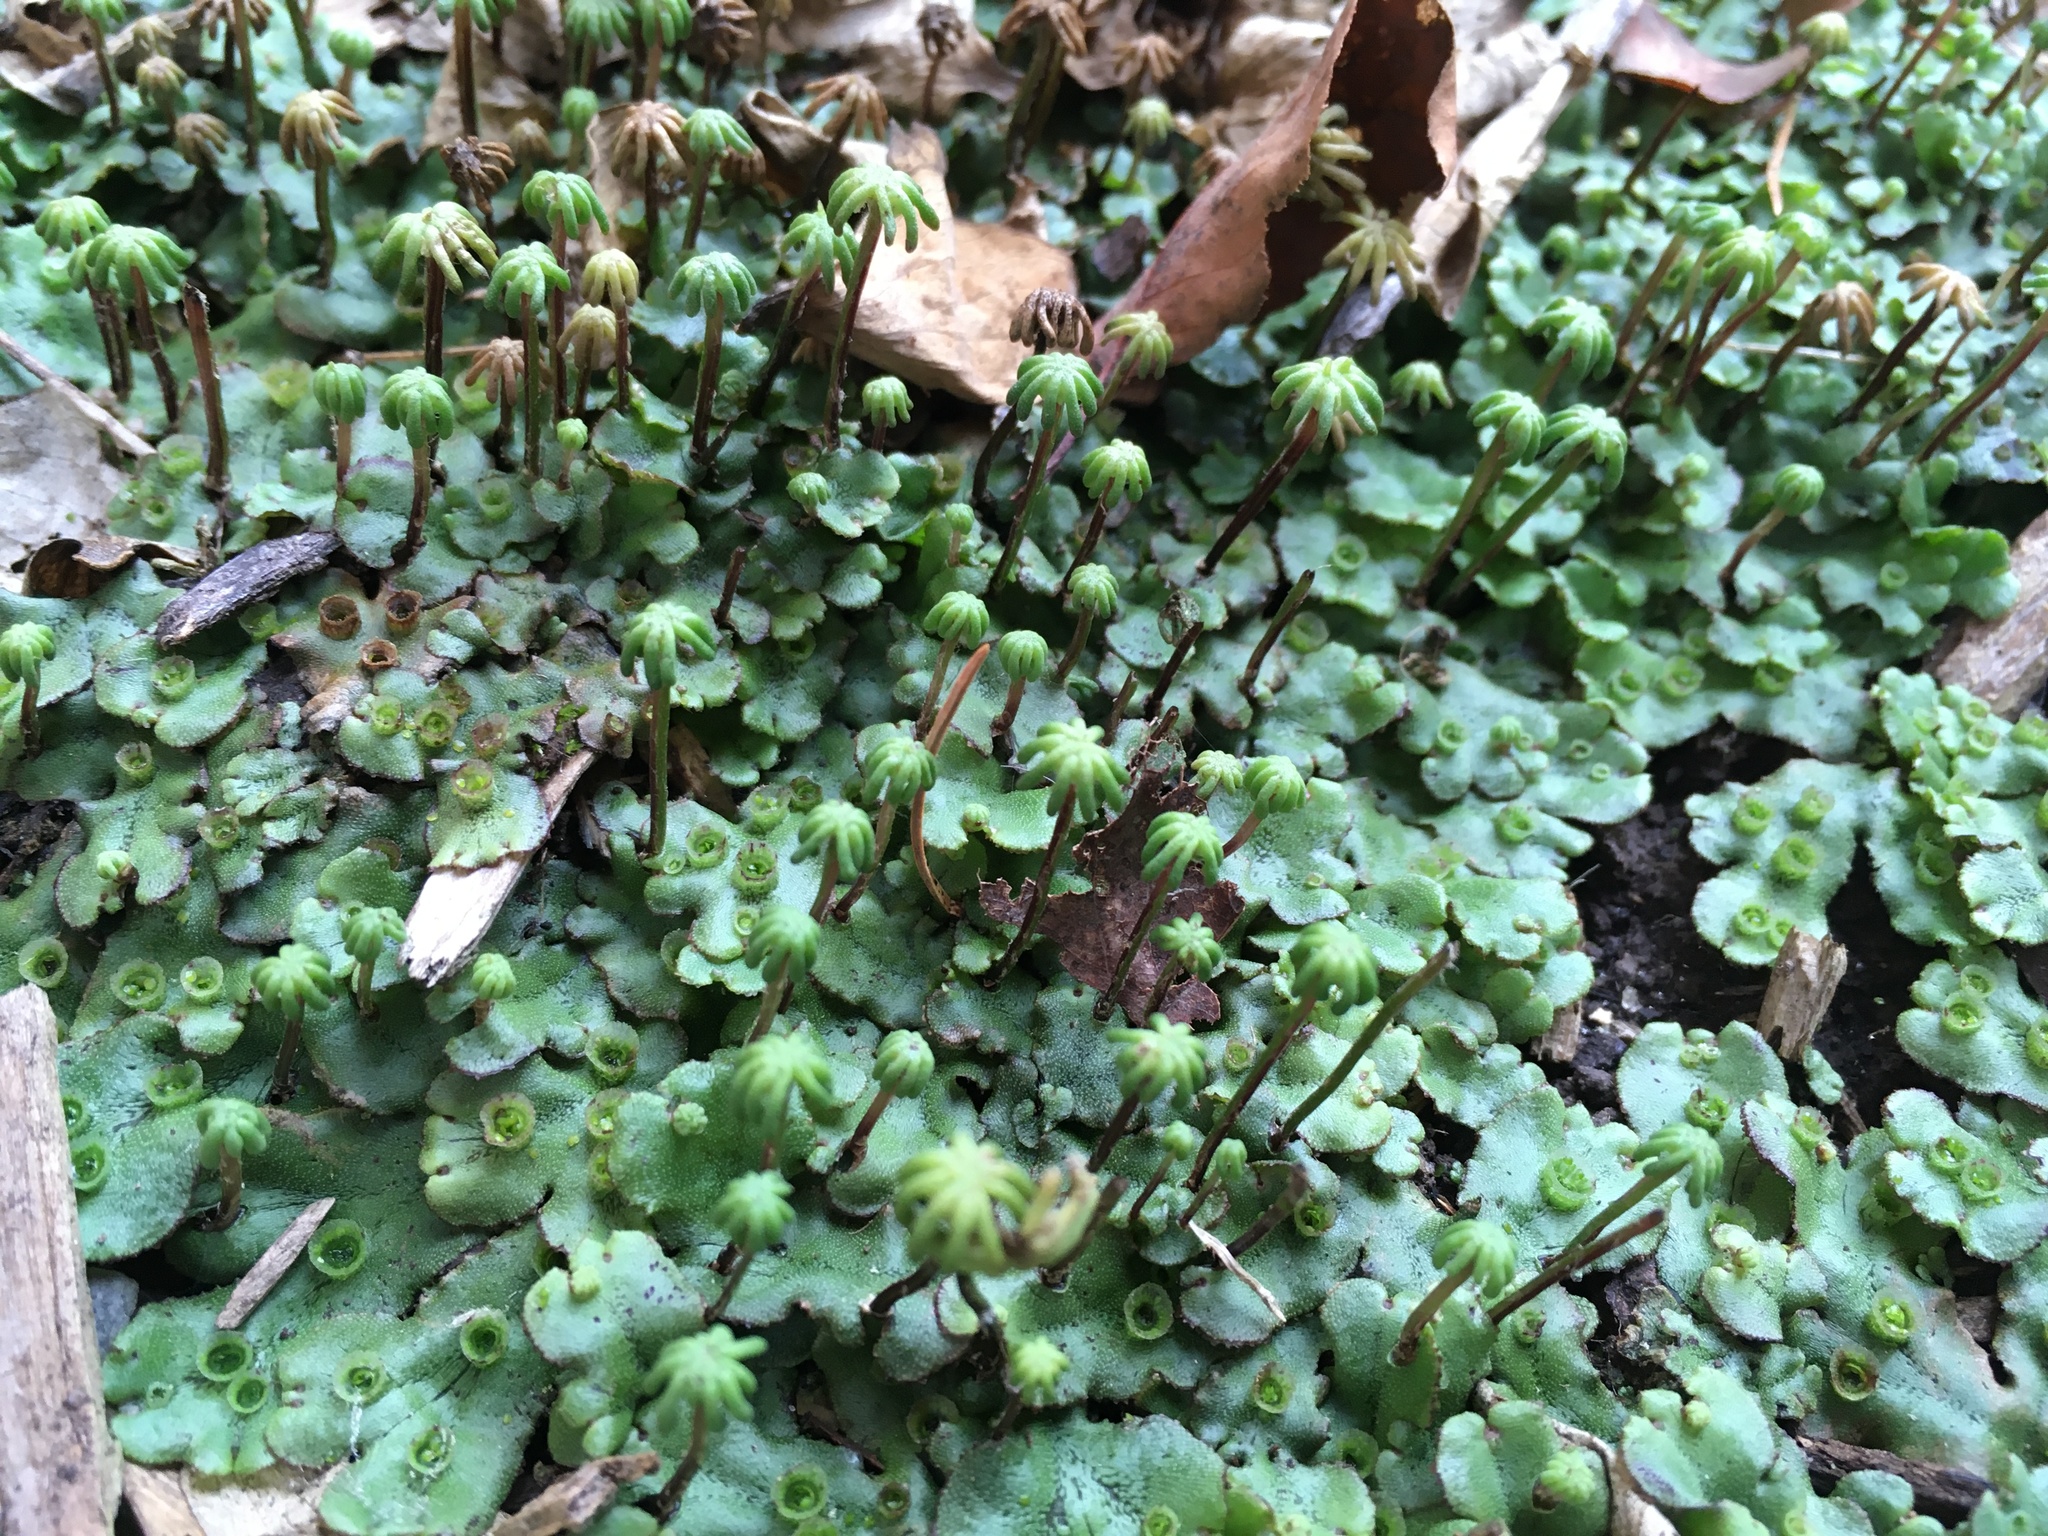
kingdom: Plantae
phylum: Marchantiophyta
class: Marchantiopsida
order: Marchantiales
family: Marchantiaceae
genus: Marchantia
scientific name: Marchantia polymorpha
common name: Common liverwort
